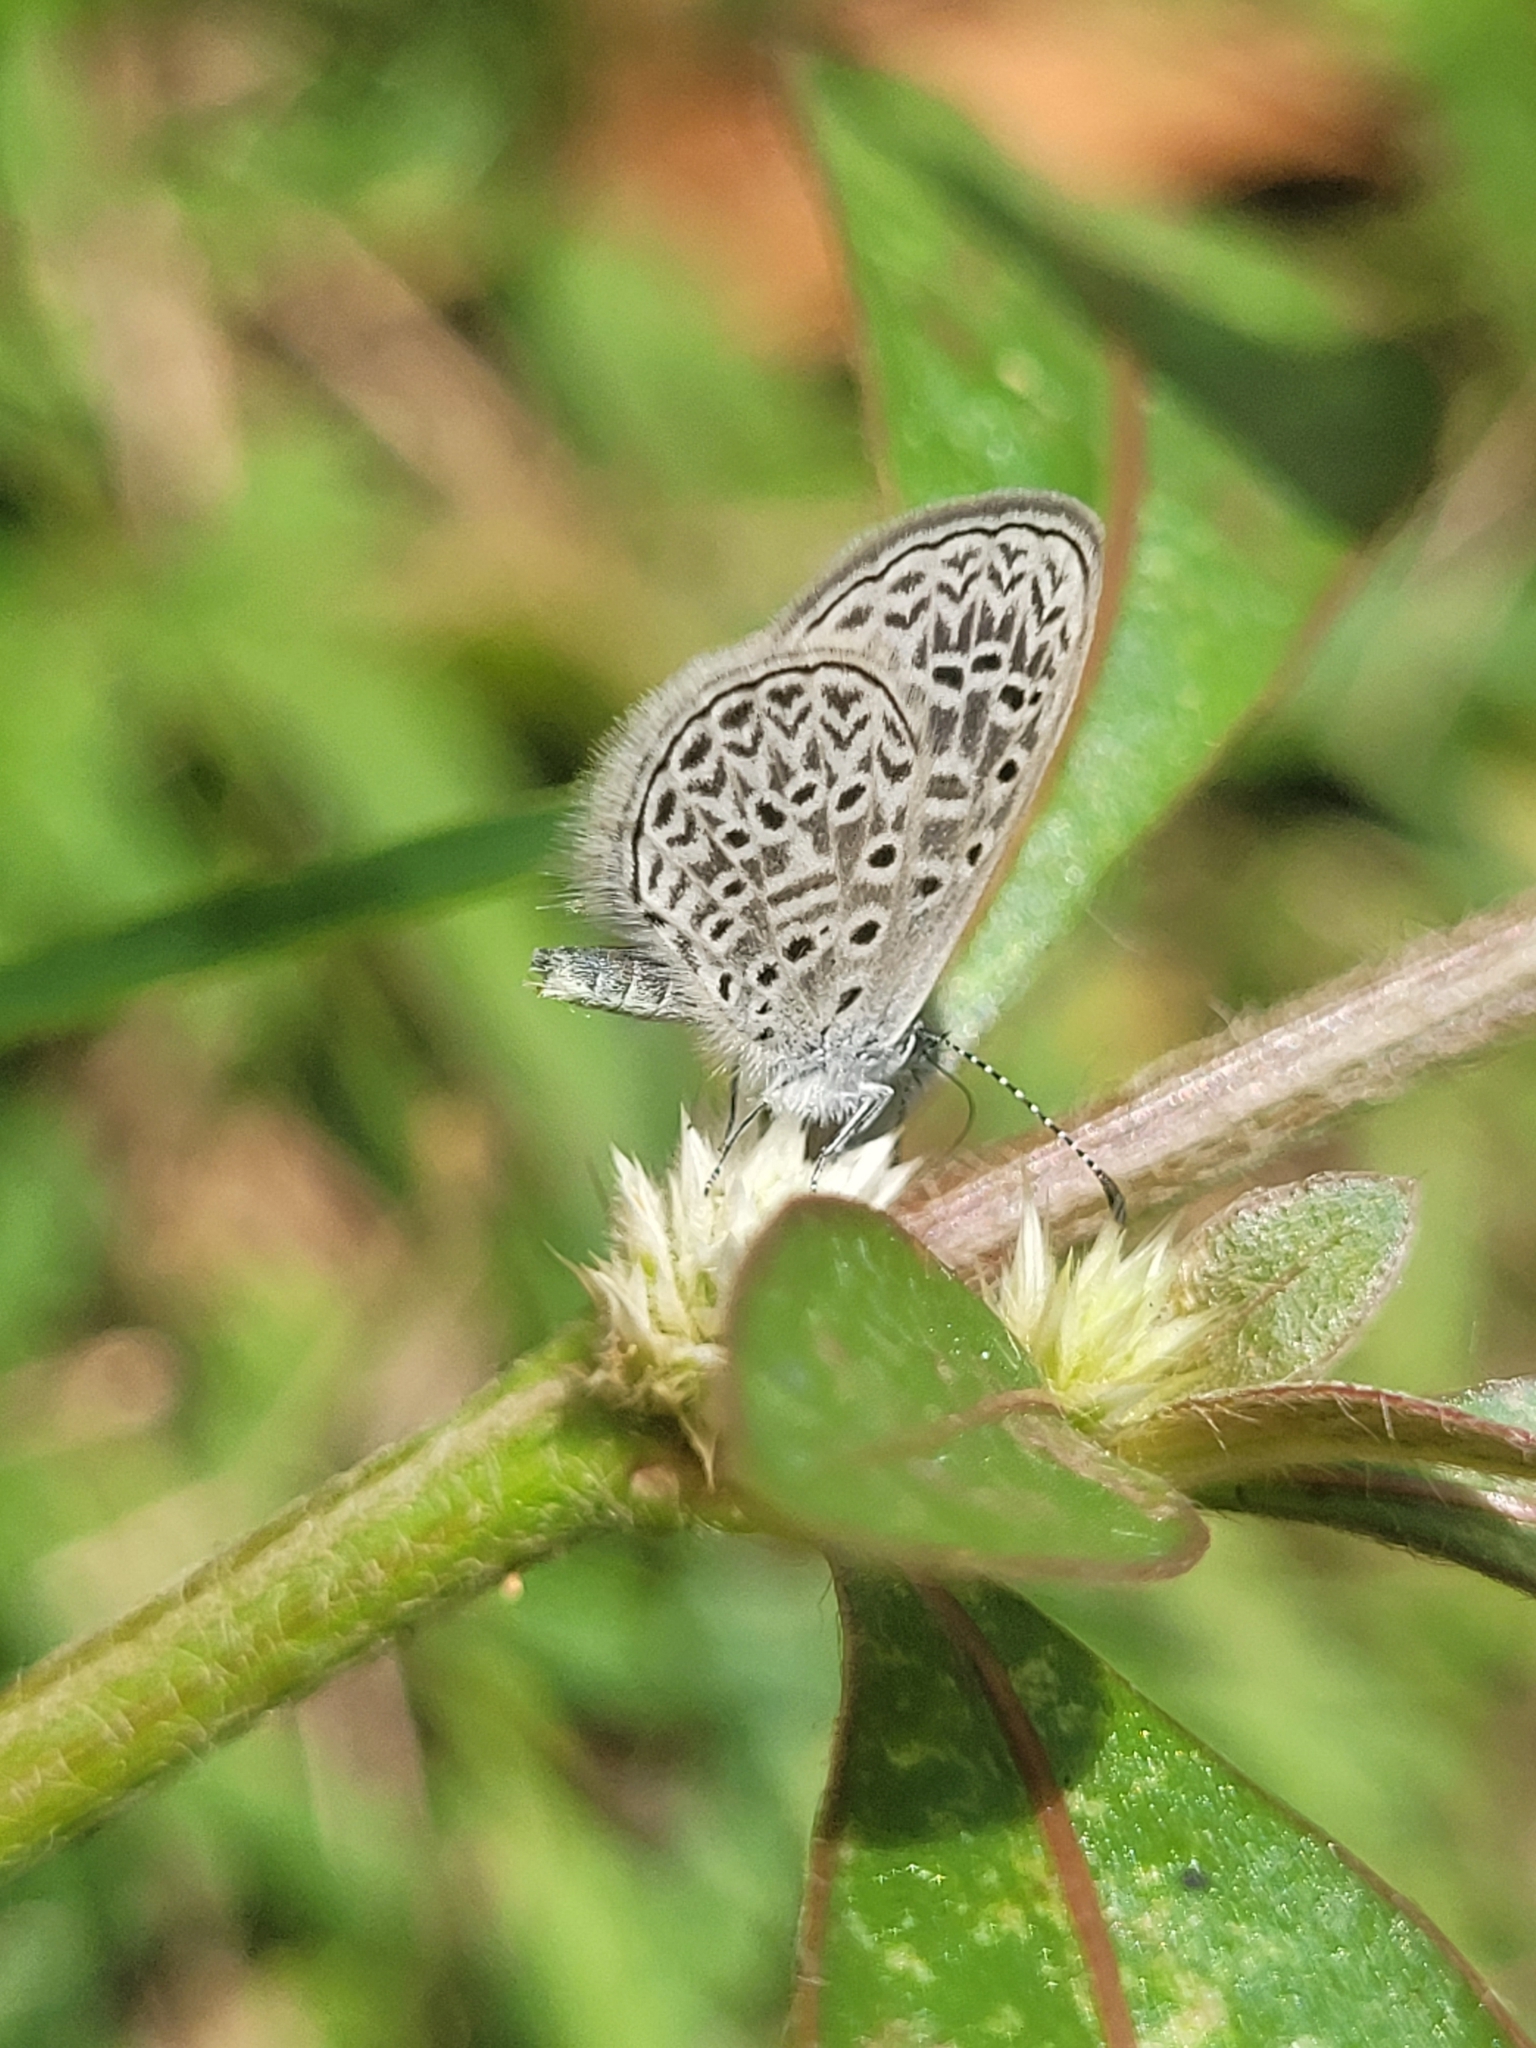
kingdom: Animalia
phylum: Arthropoda
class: Insecta
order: Lepidoptera
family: Lycaenidae
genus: Lycaena
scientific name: Lycaena cyna
